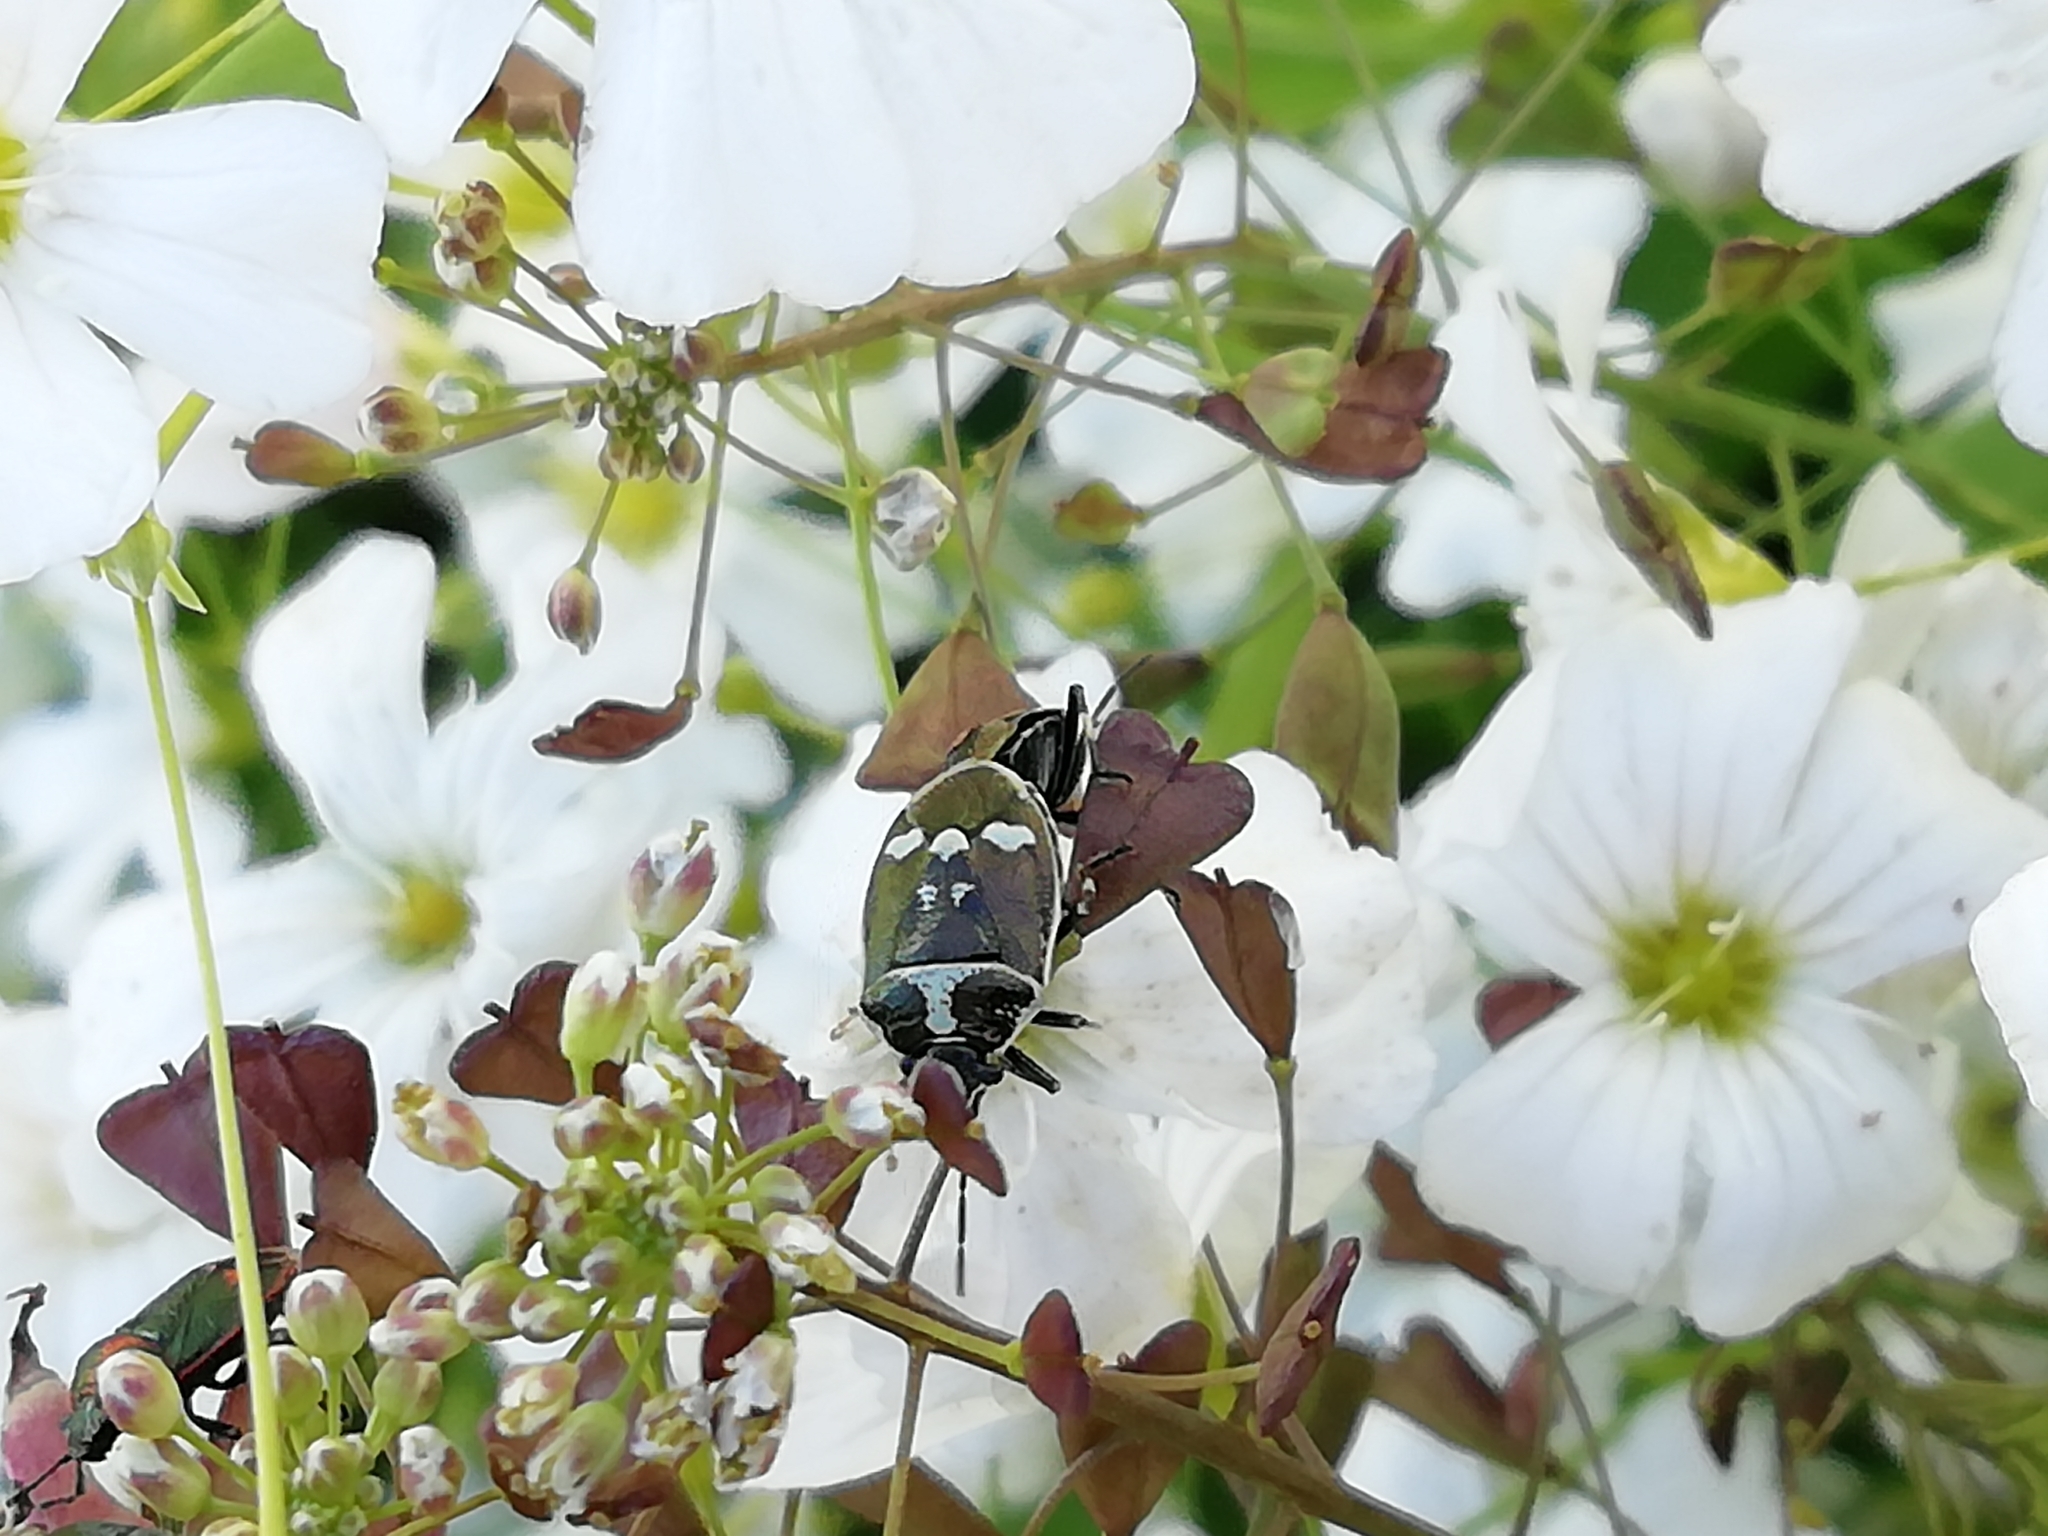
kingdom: Animalia
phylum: Arthropoda
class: Insecta
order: Hemiptera
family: Pentatomidae
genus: Eurydema
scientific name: Eurydema oleracea
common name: Cabbage bug
